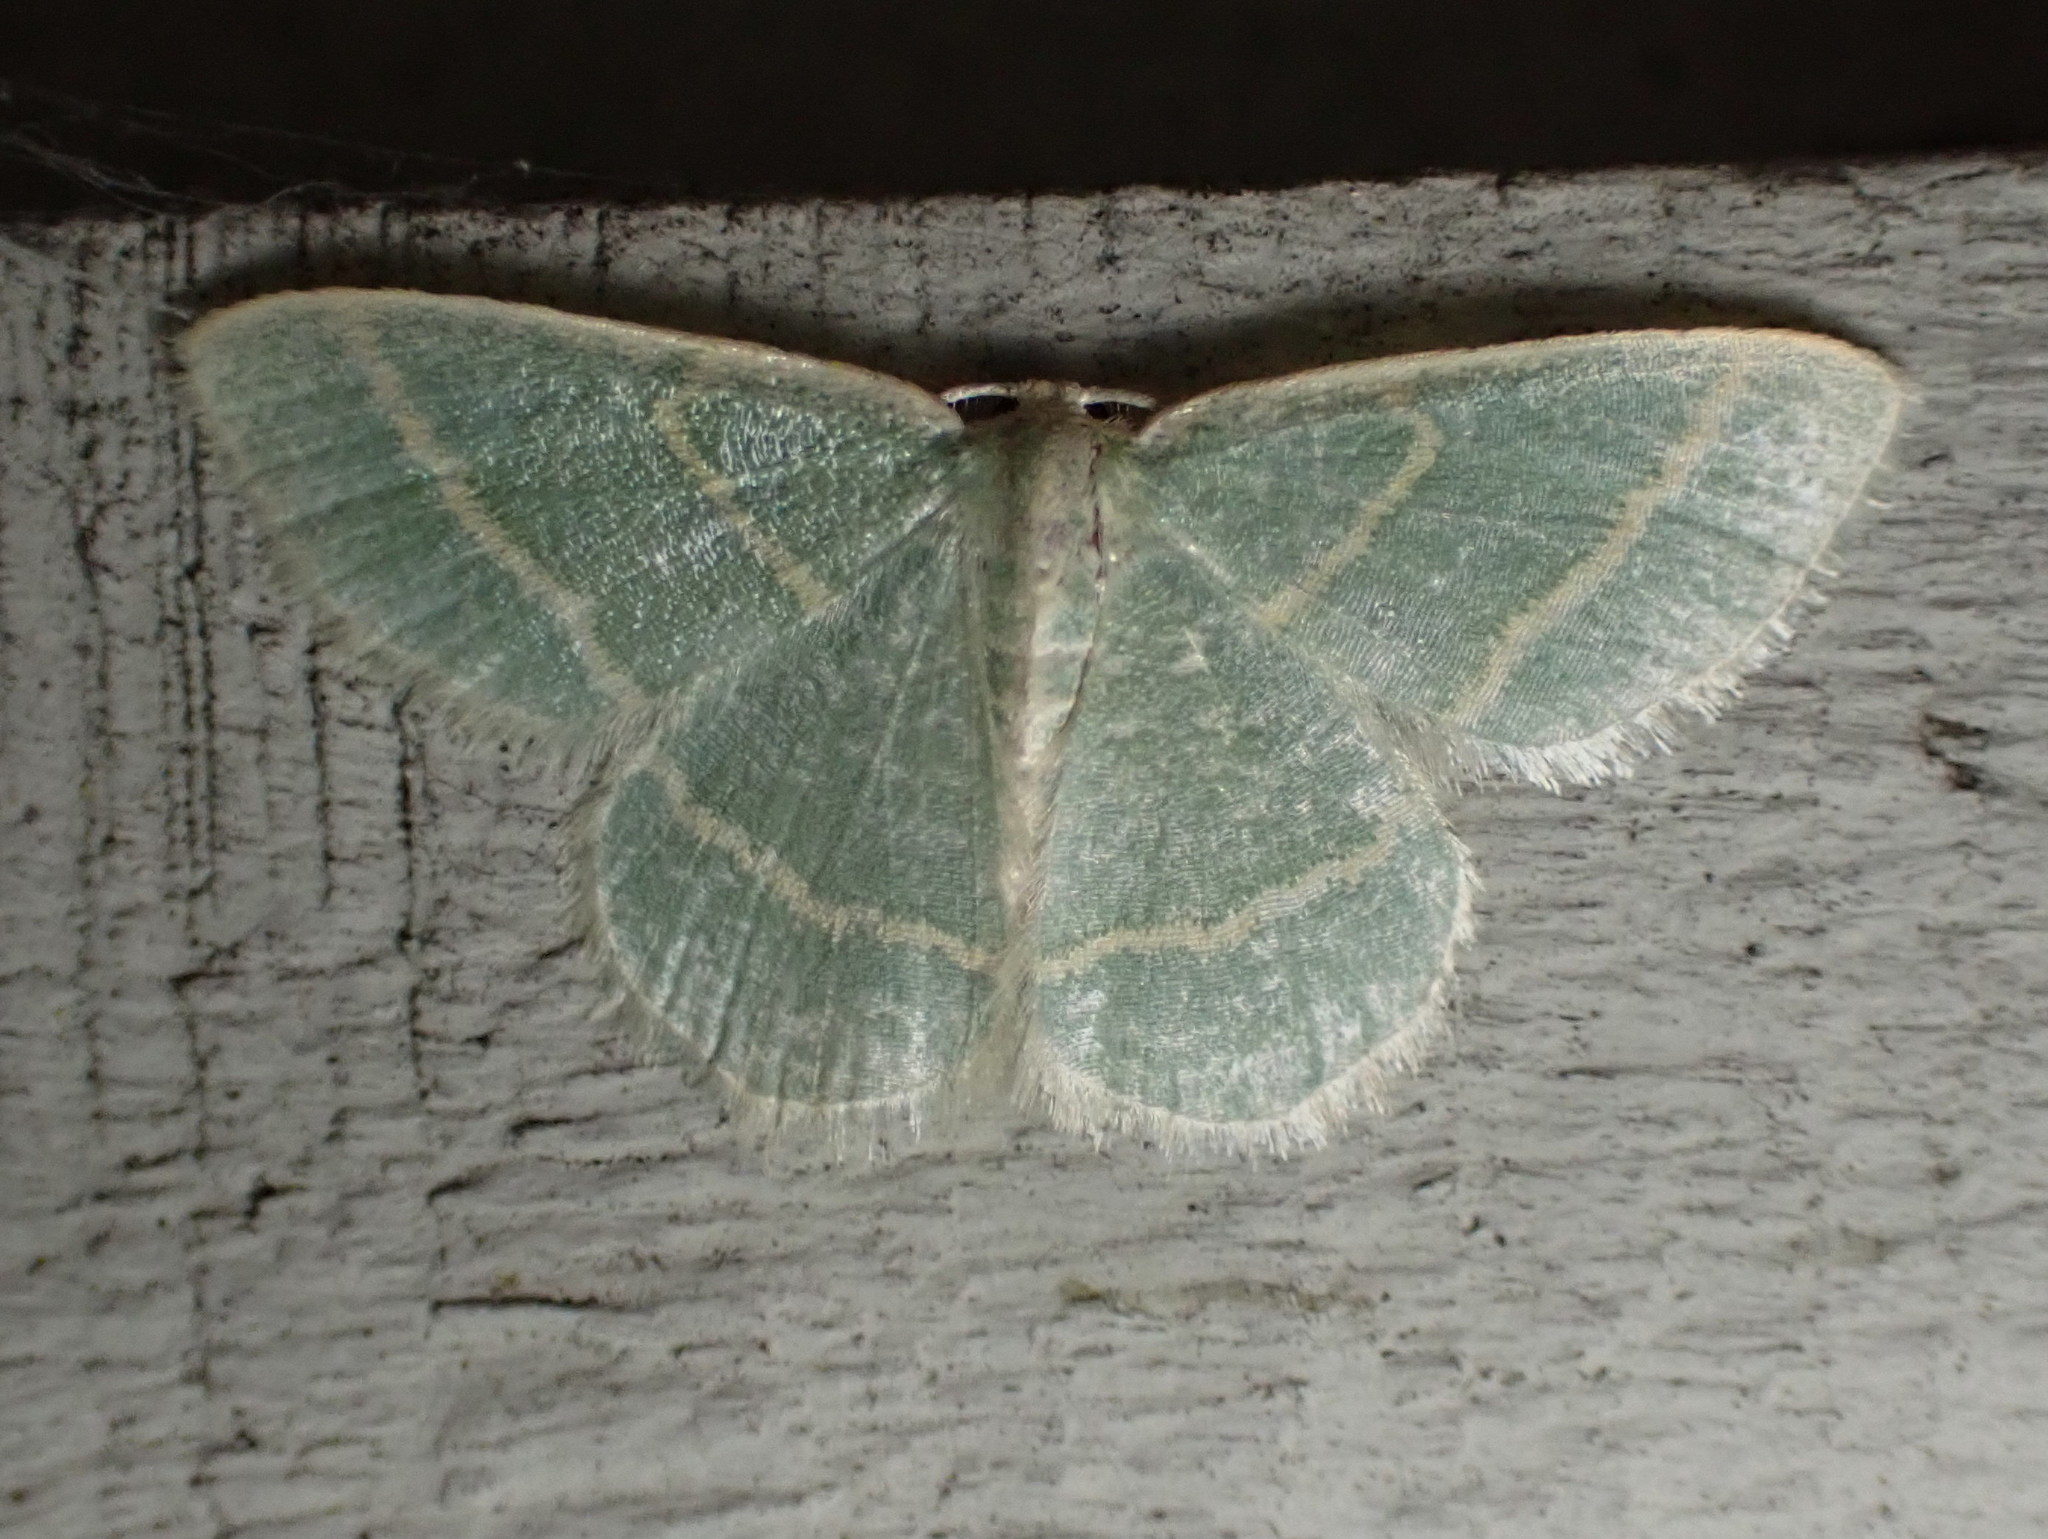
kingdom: Animalia
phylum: Arthropoda
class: Insecta
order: Lepidoptera
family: Geometridae
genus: Chlorochlamys
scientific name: Chlorochlamys chloroleucaria
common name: Blackberry looper
